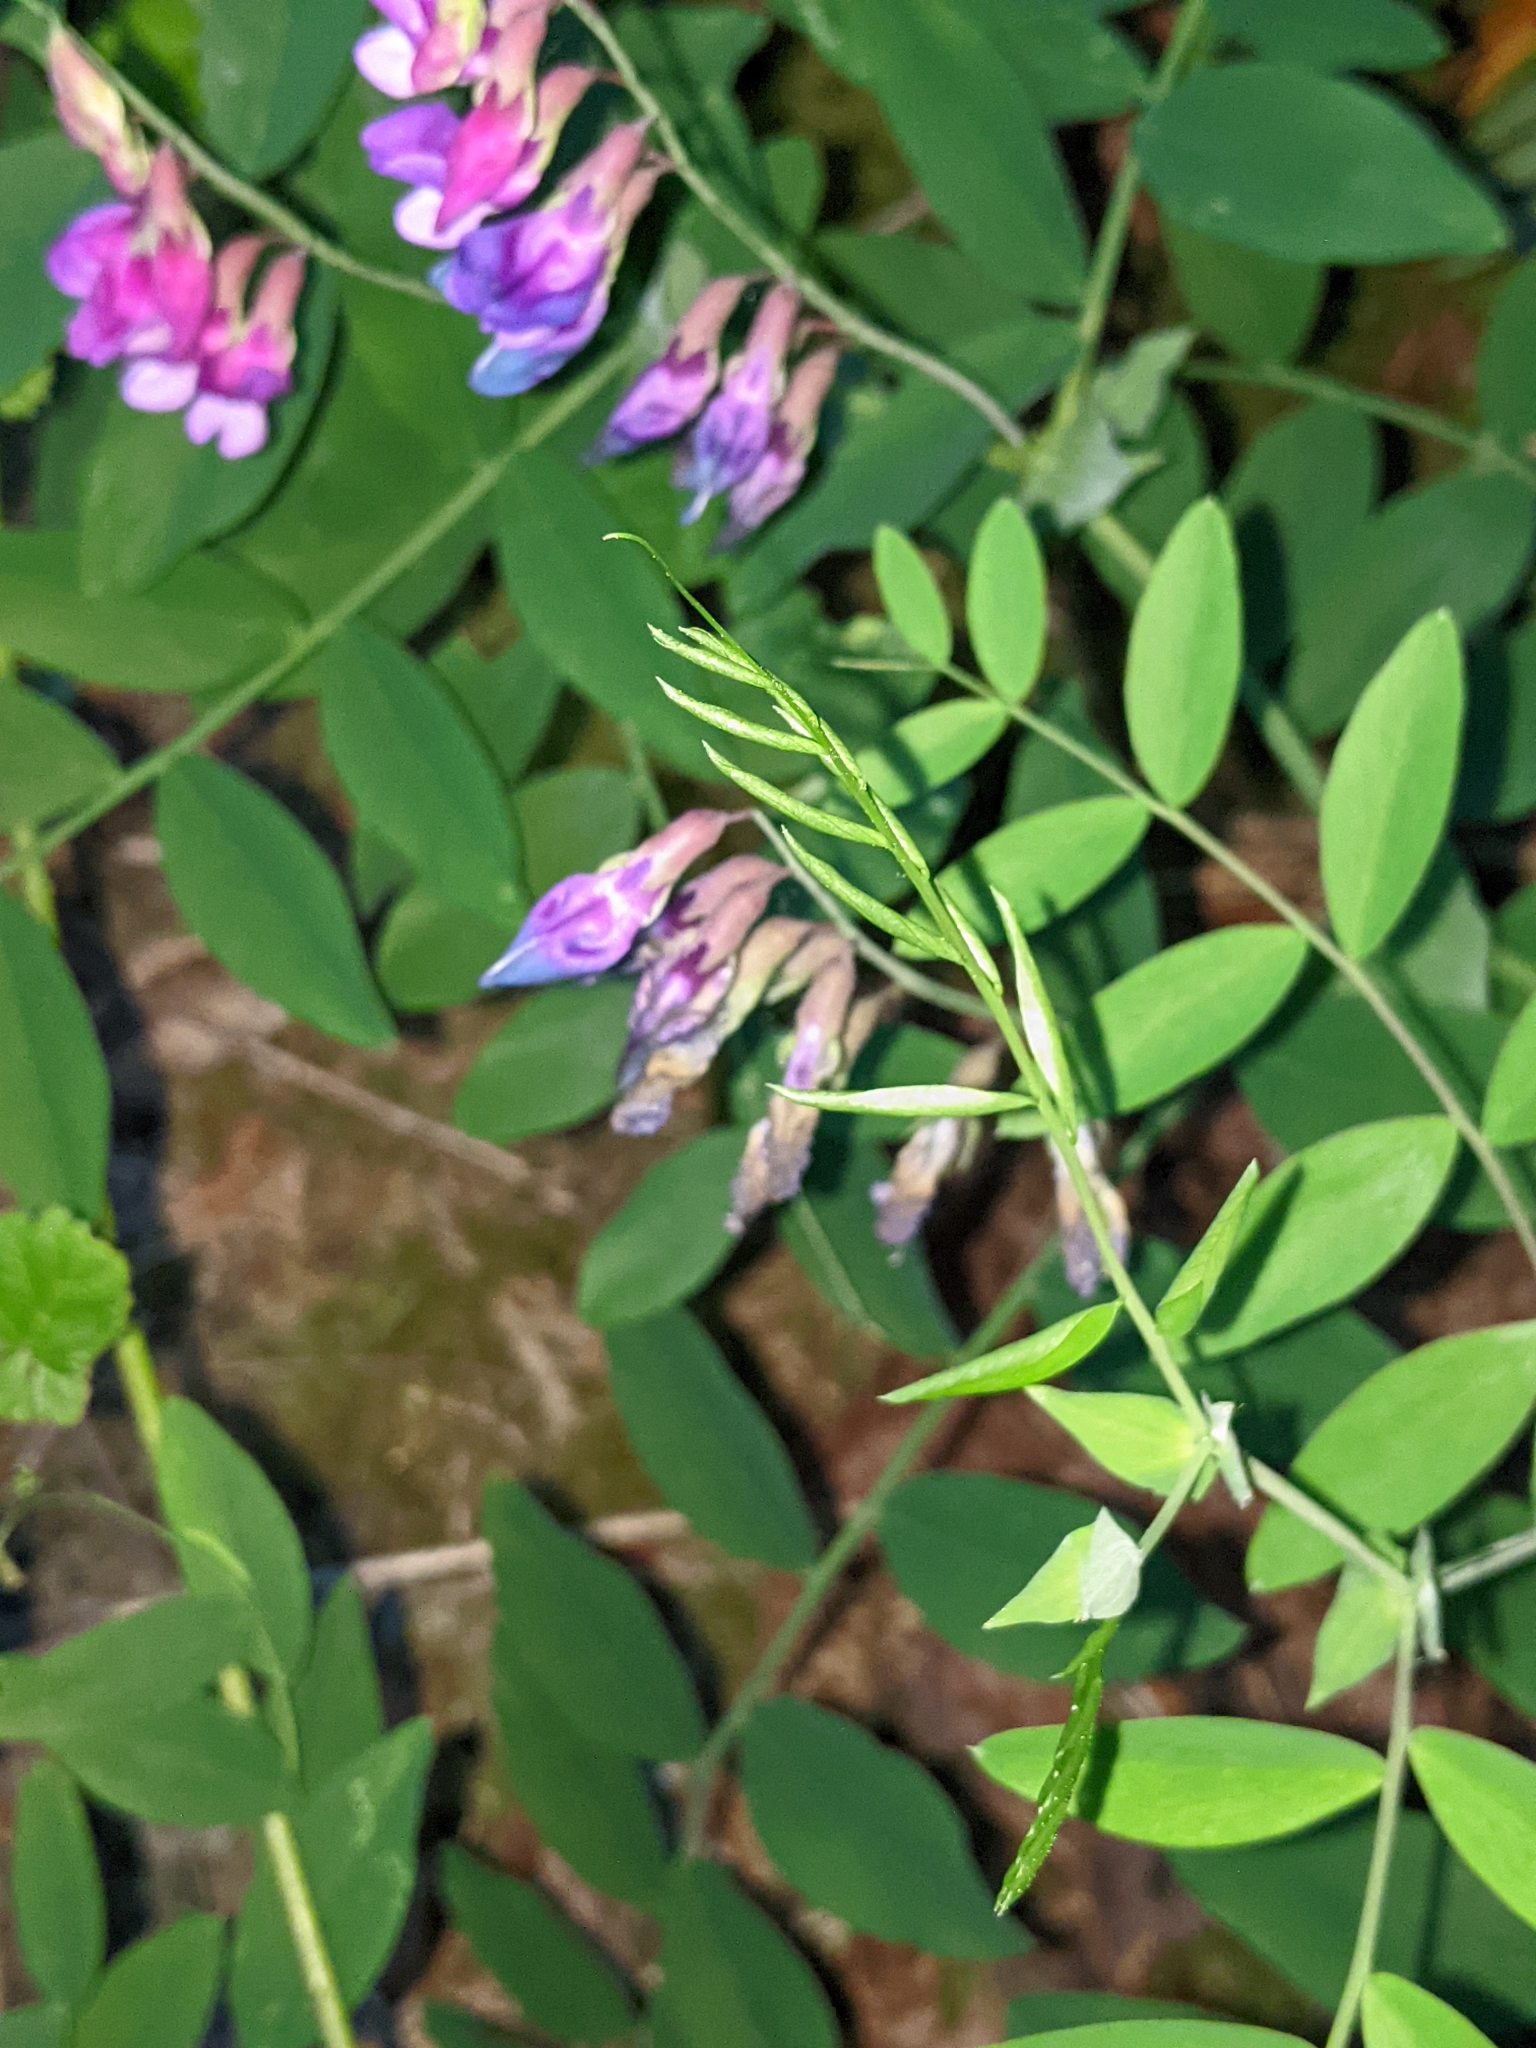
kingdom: Plantae
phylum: Tracheophyta
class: Magnoliopsida
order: Fabales
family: Fabaceae
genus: Lathyrus
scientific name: Lathyrus polyphyllus
